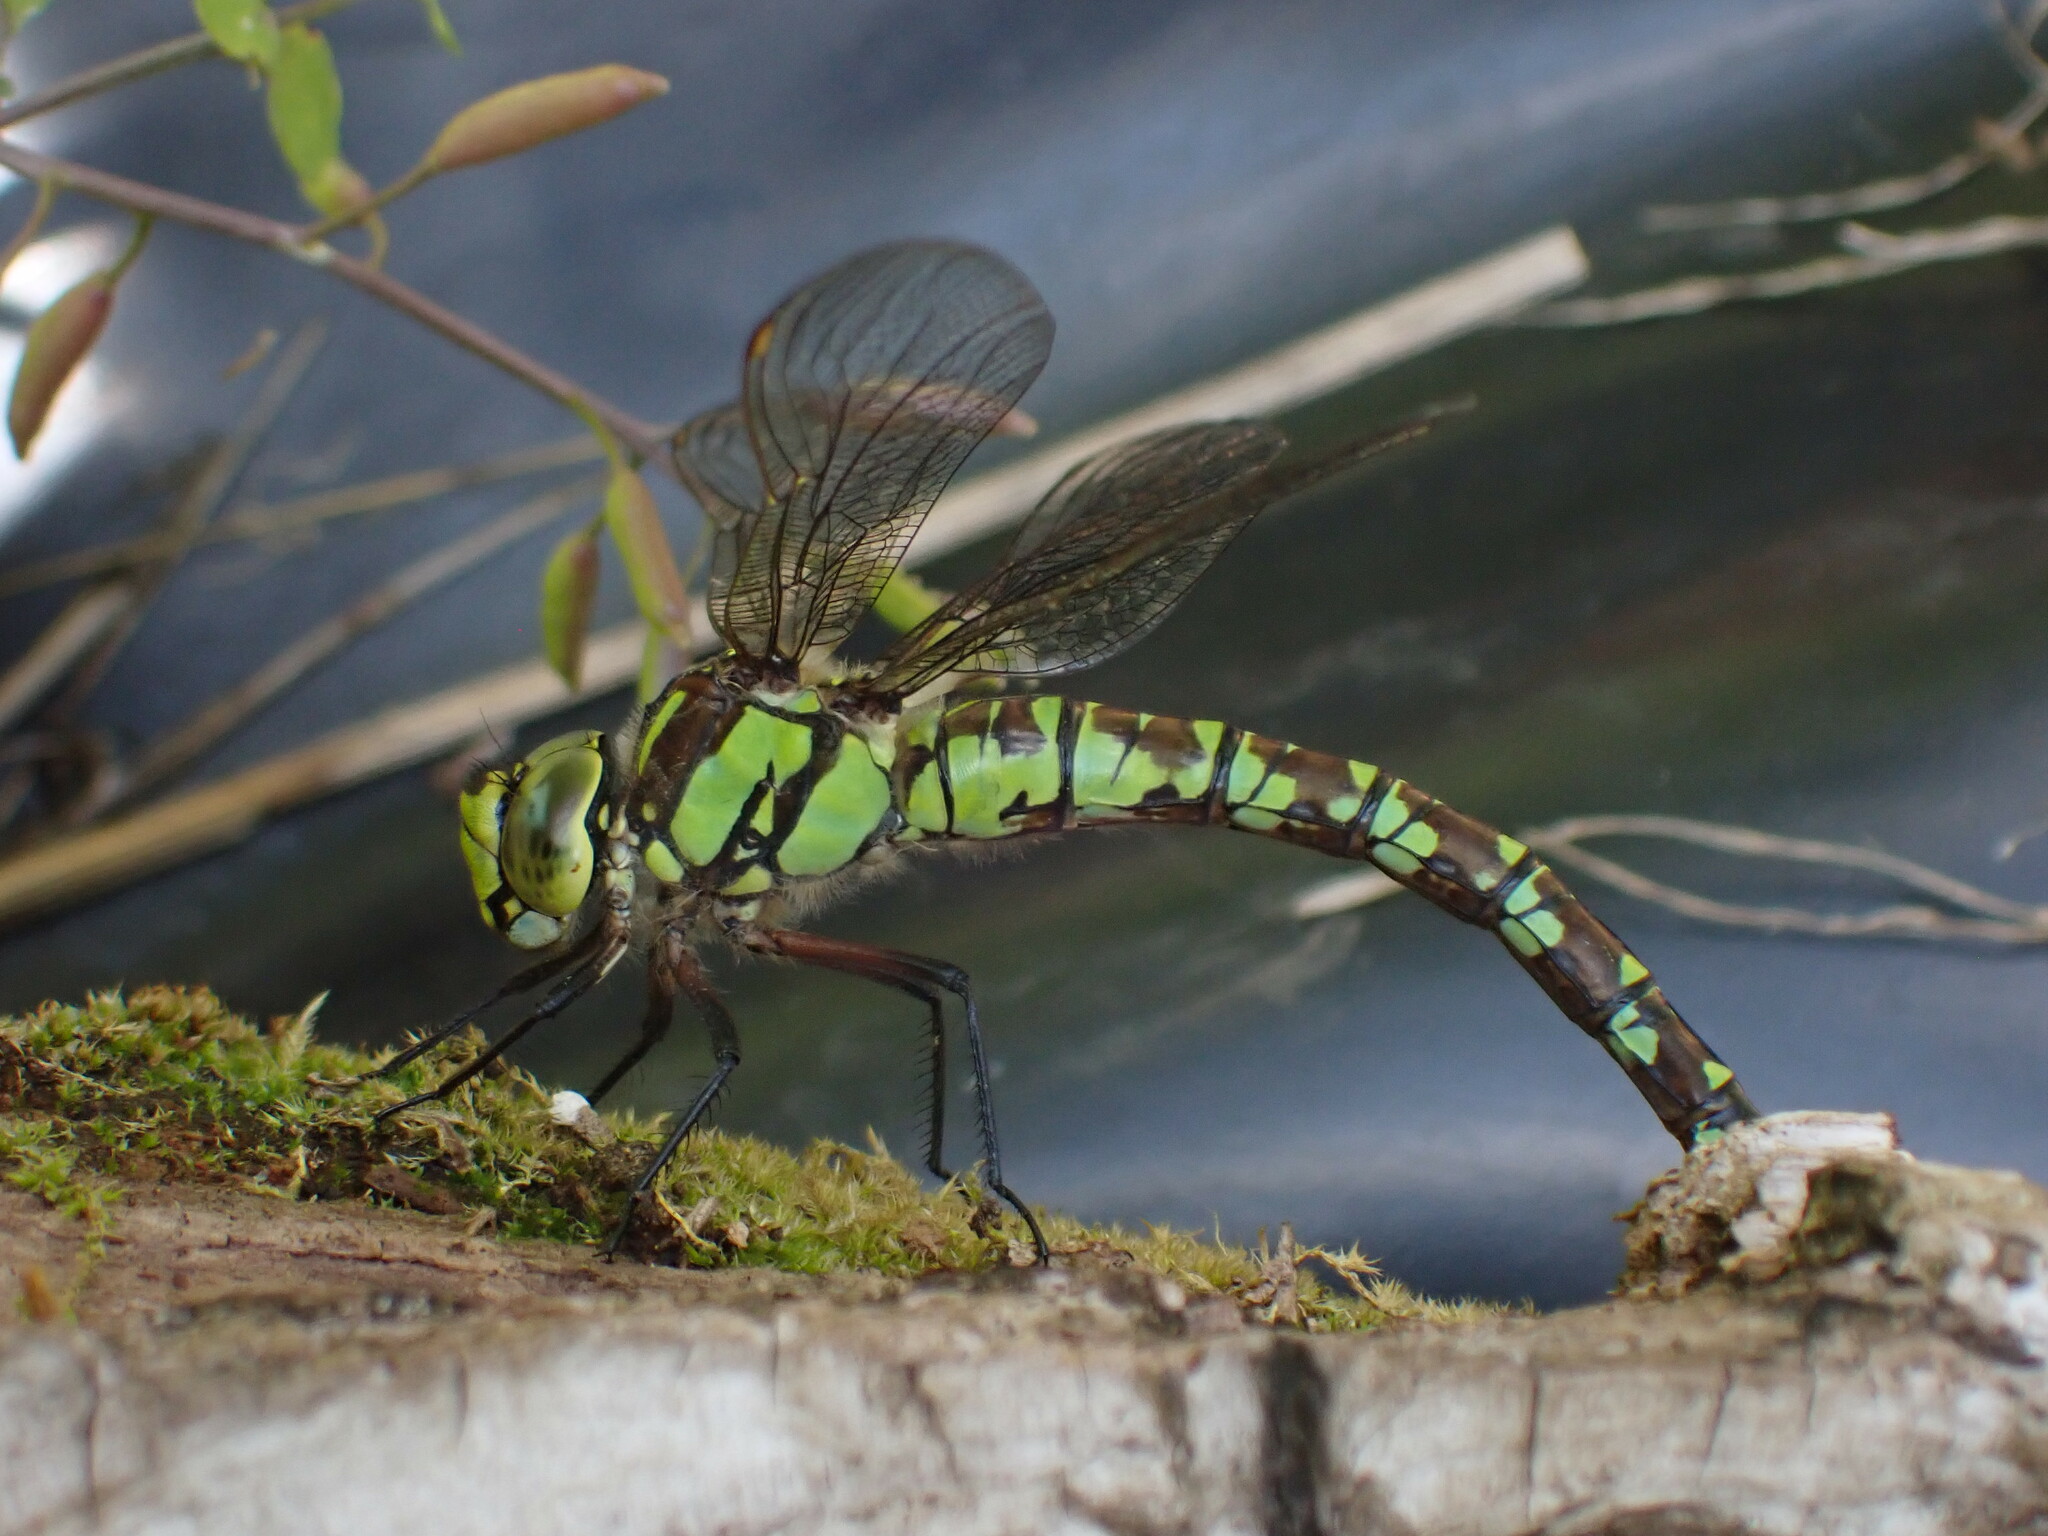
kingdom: Animalia
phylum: Arthropoda
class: Insecta
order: Odonata
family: Aeshnidae
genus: Aeshna
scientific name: Aeshna cyanea
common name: Southern hawker
